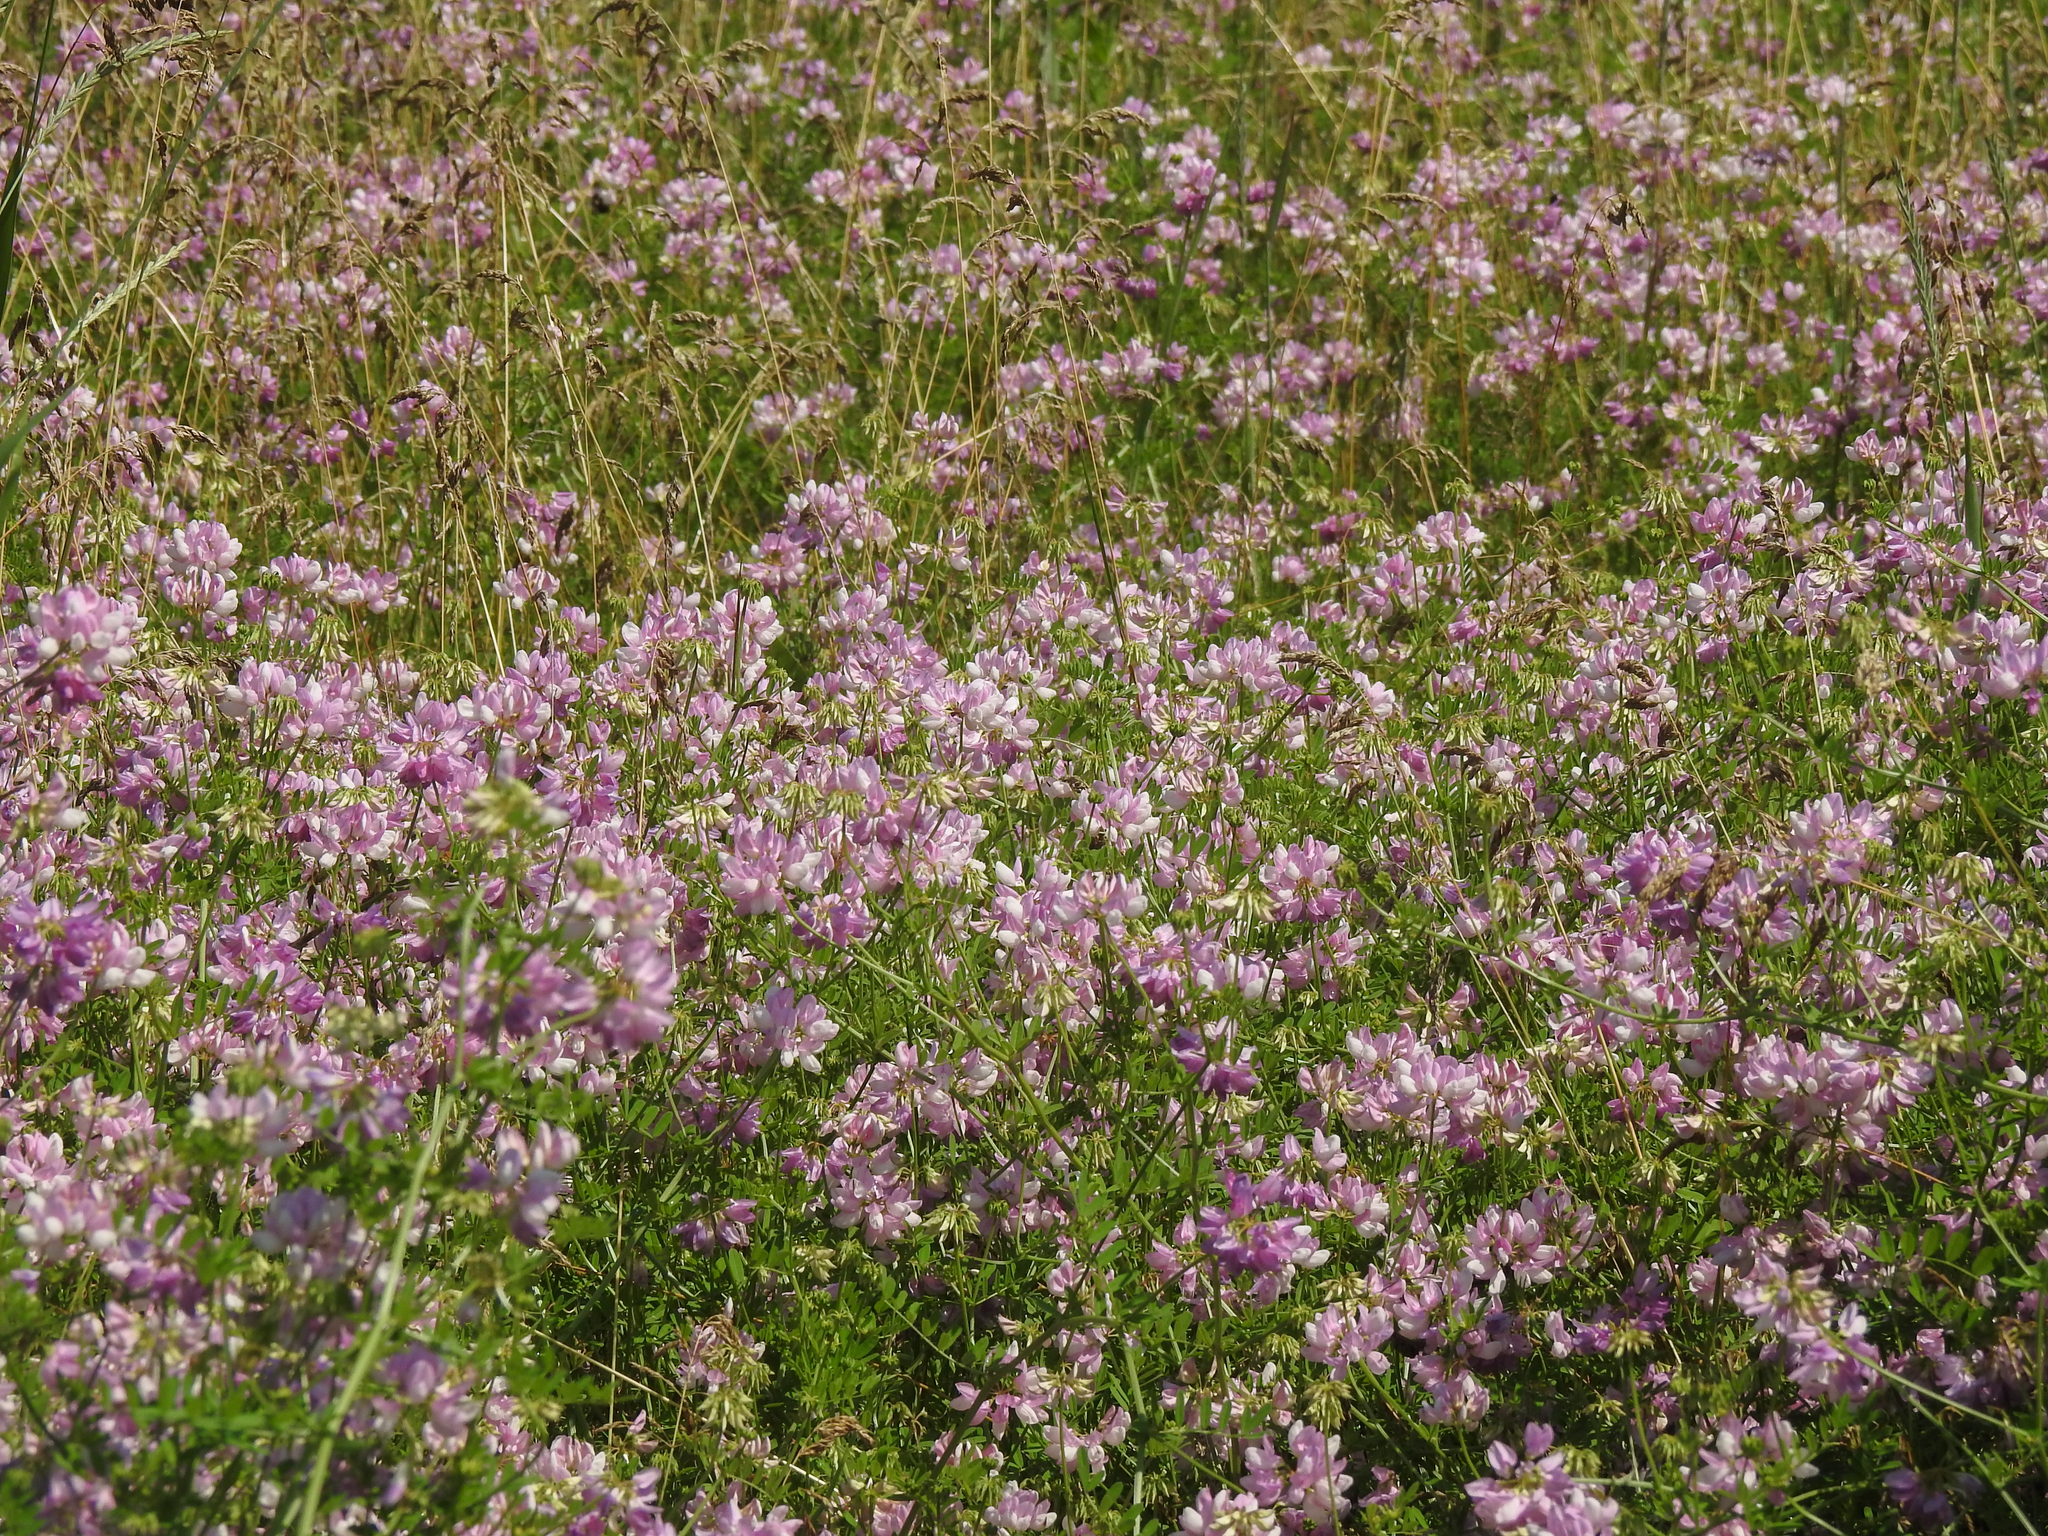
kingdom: Plantae
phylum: Tracheophyta
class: Magnoliopsida
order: Fabales
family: Fabaceae
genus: Coronilla
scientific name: Coronilla varia
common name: Crownvetch
